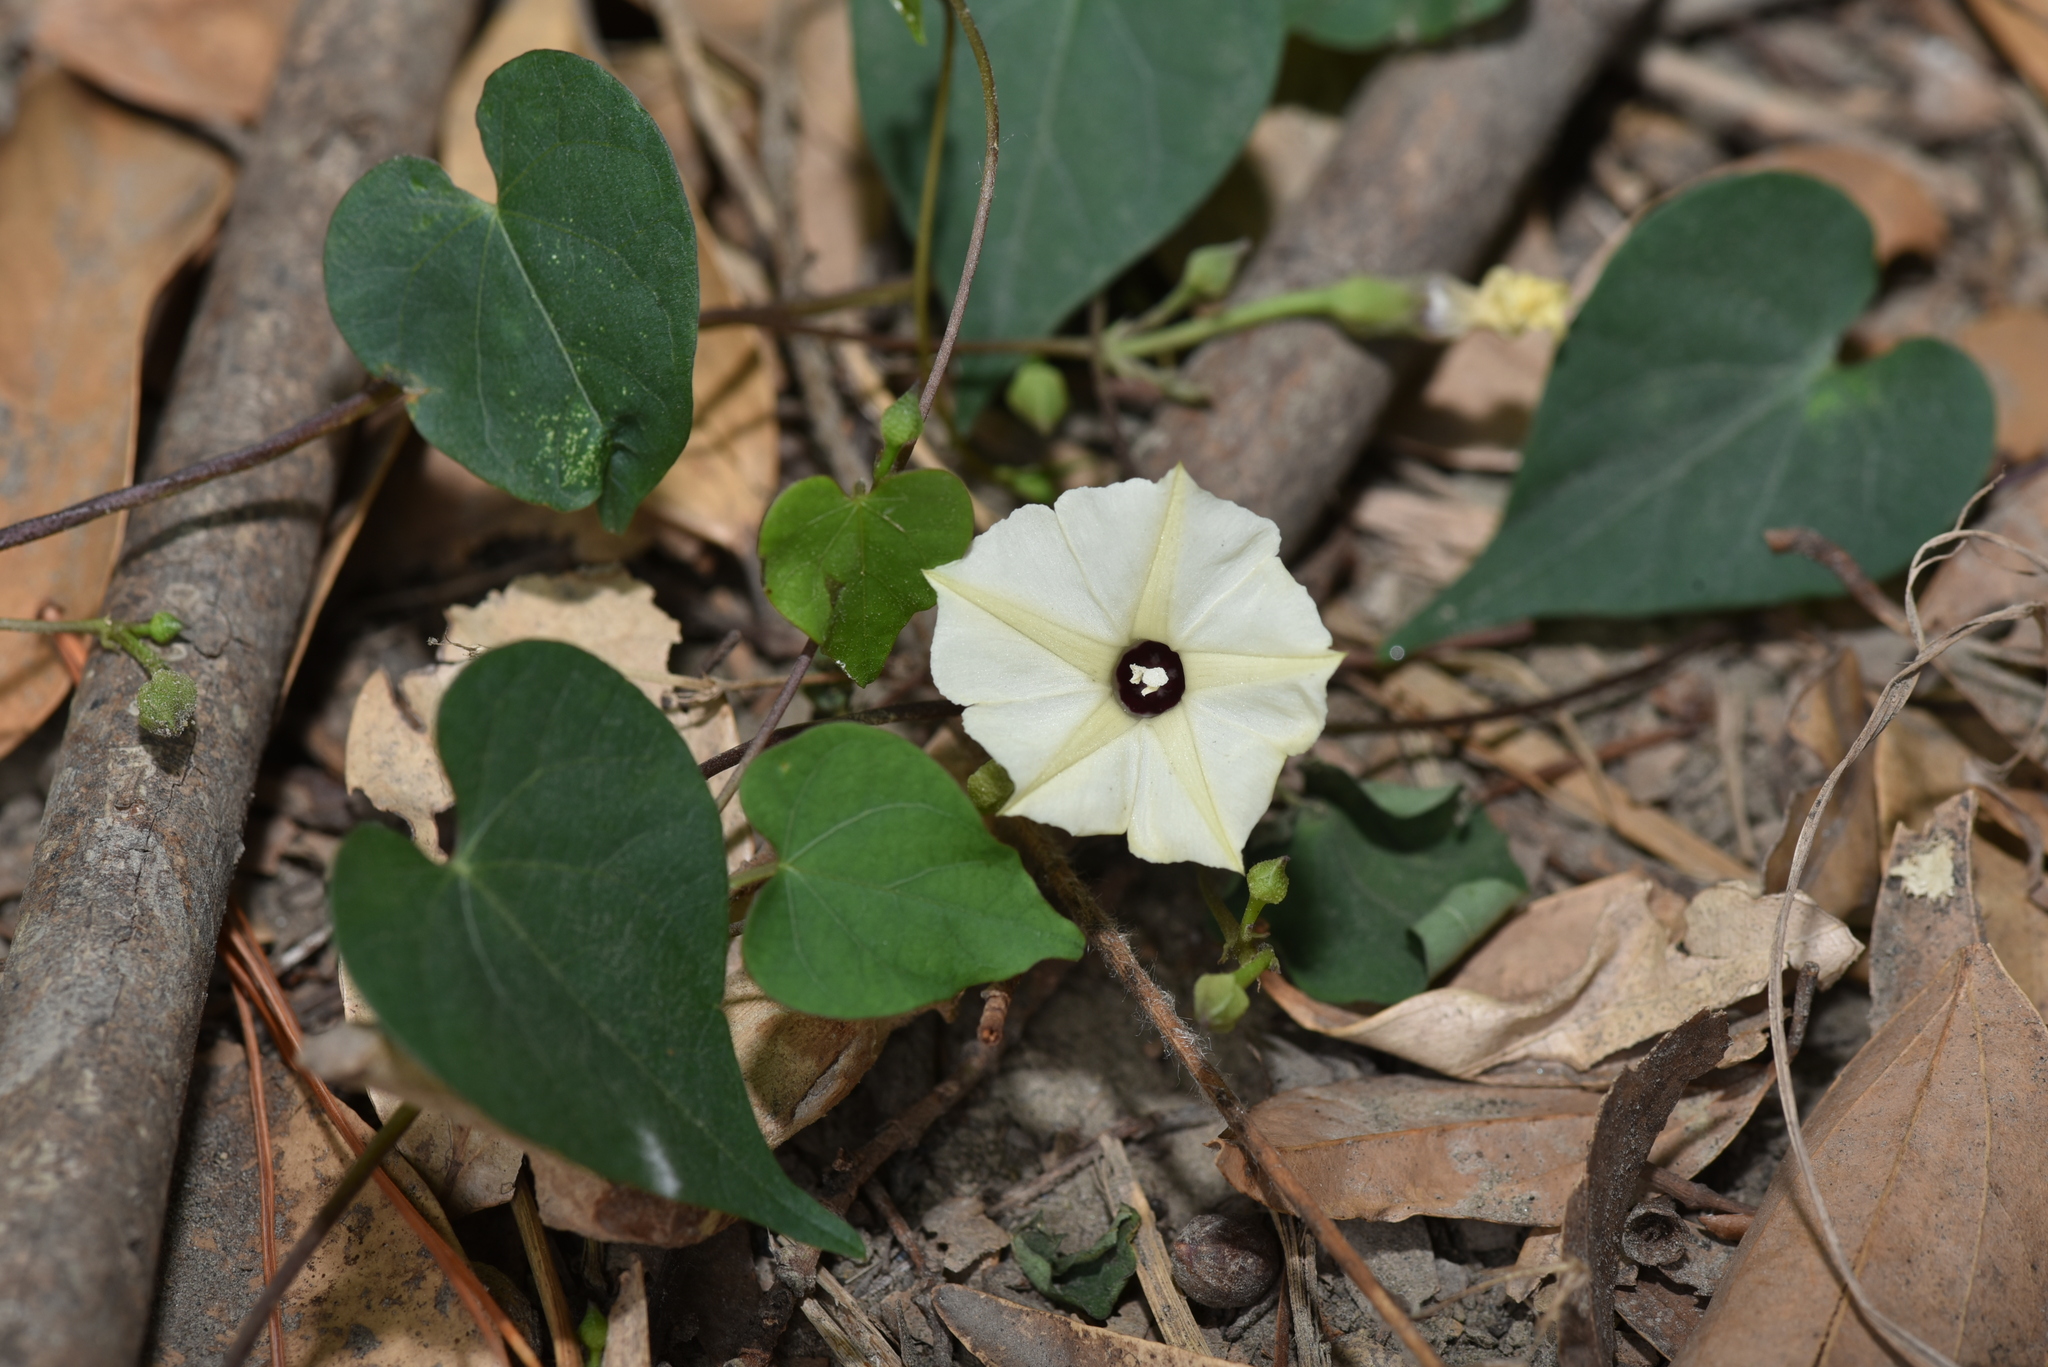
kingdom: Plantae
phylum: Tracheophyta
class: Magnoliopsida
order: Solanales
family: Convolvulaceae
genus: Ipomoea
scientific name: Ipomoea obscura
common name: Obscure morning-glory
